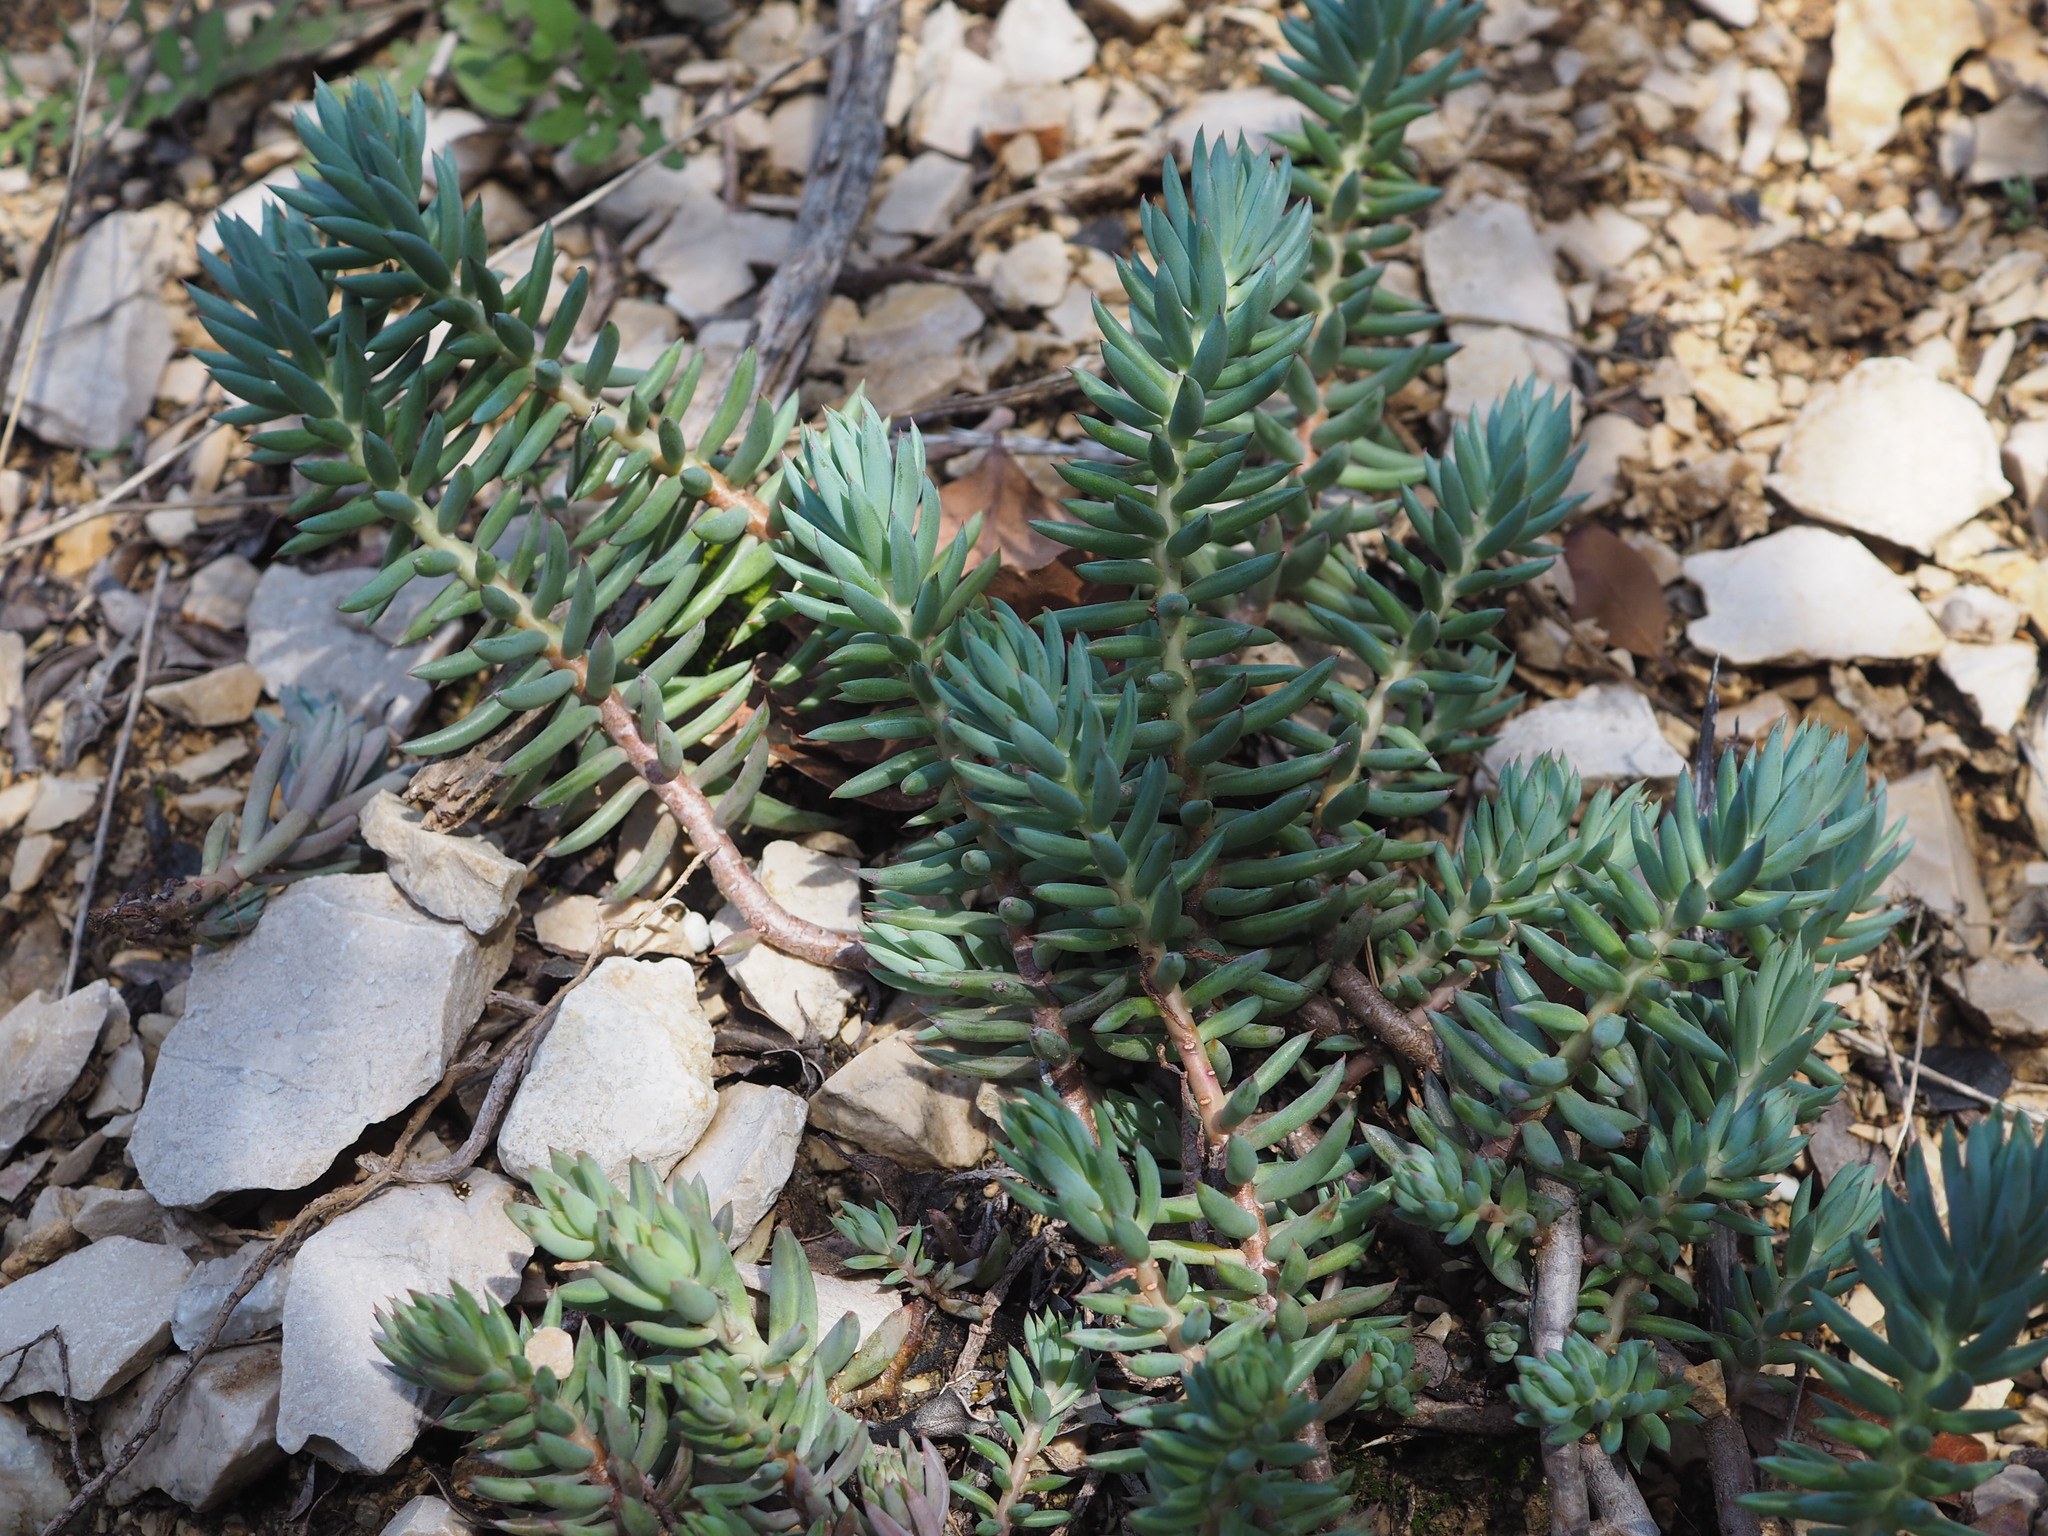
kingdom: Plantae
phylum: Tracheophyta
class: Magnoliopsida
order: Saxifragales
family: Crassulaceae
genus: Petrosedum
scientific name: Petrosedum sediforme
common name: Pale stonecrop
